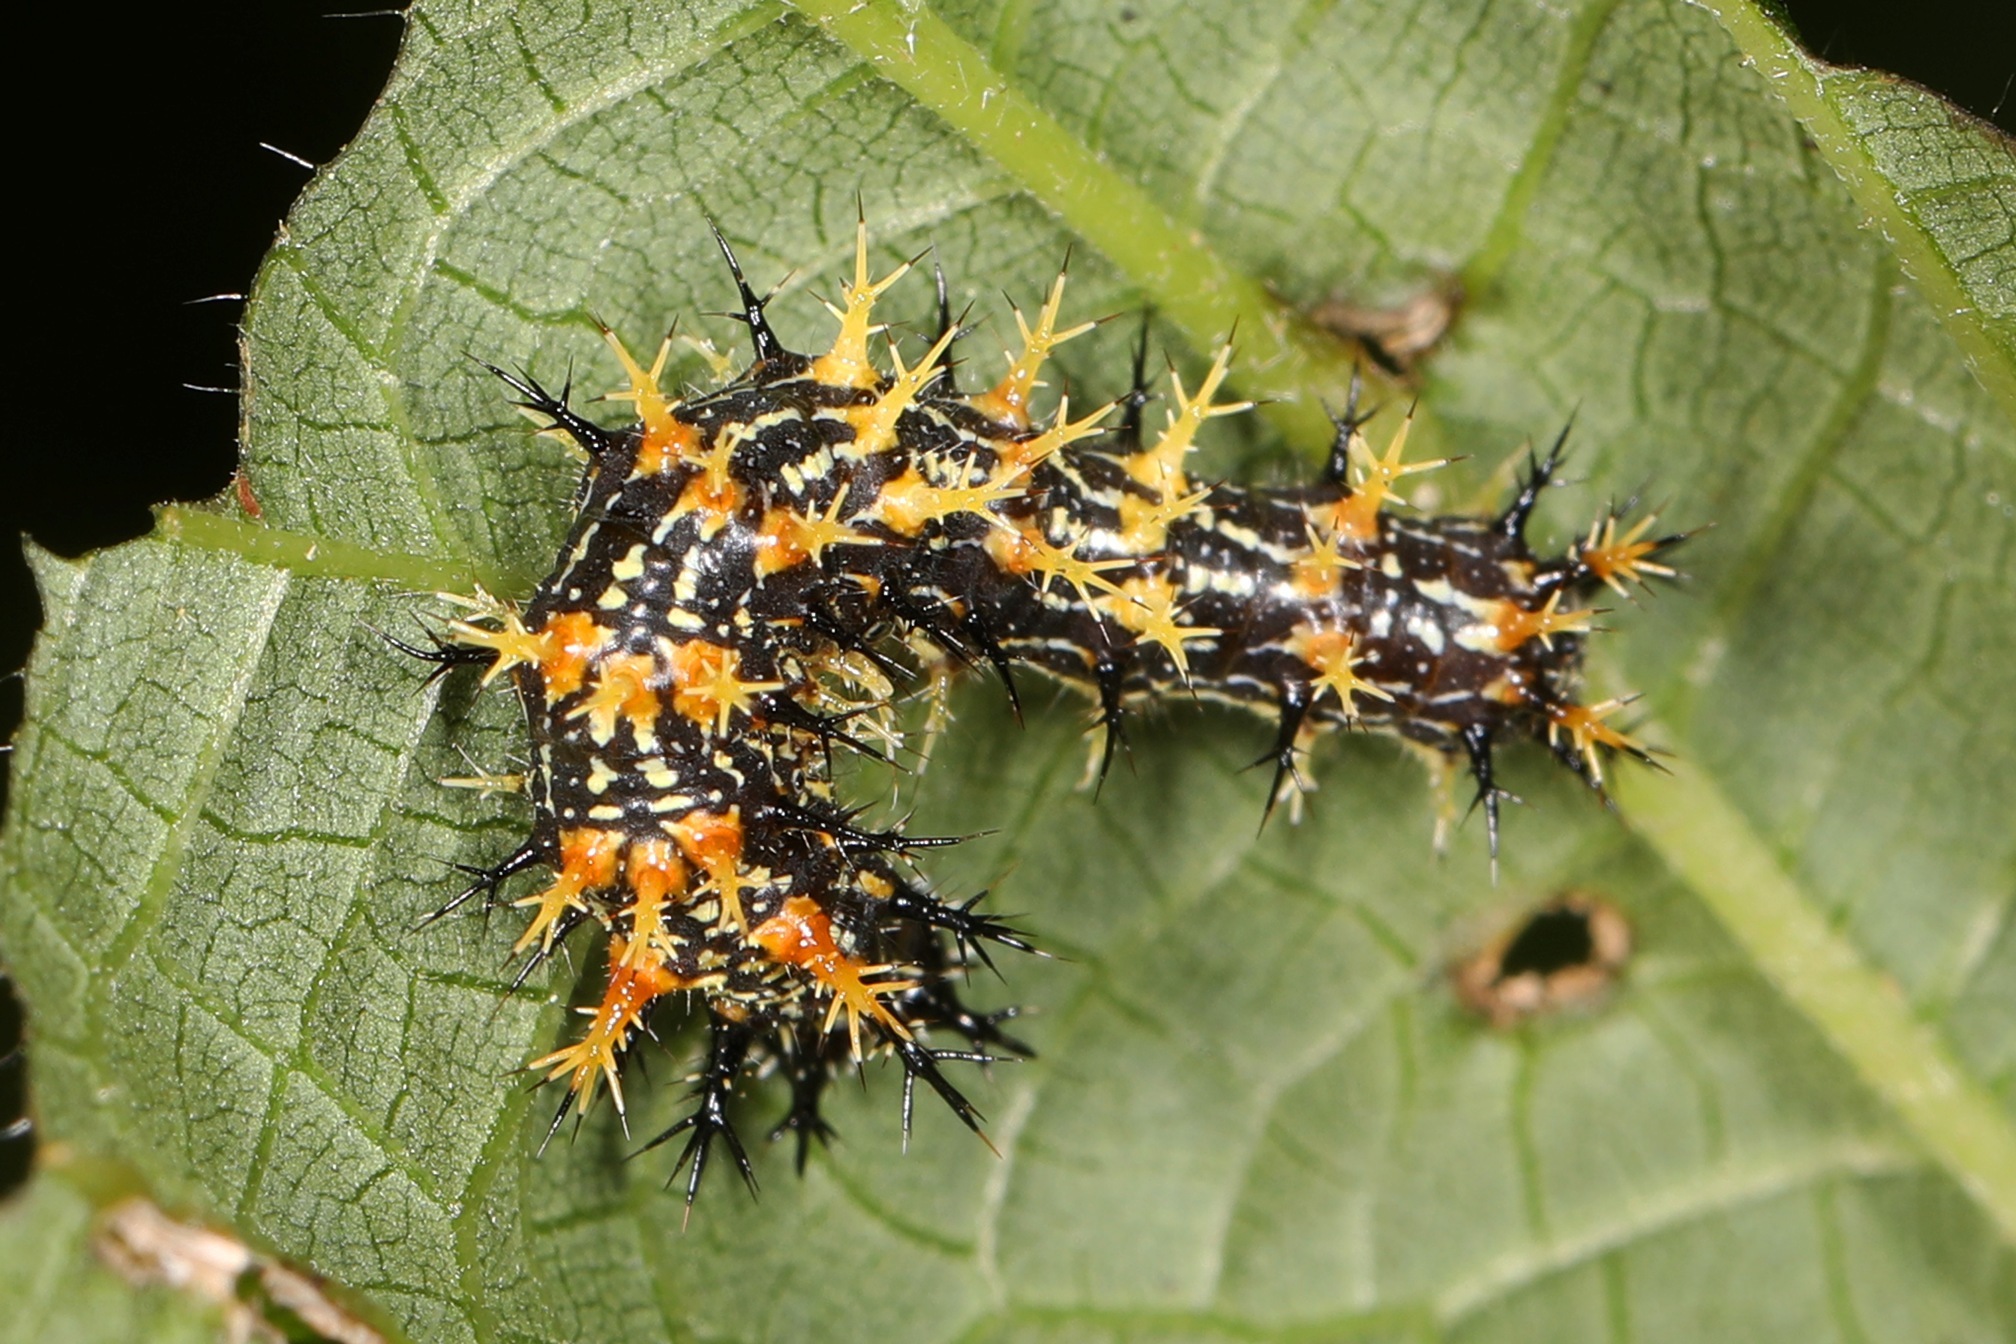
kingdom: Animalia
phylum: Arthropoda
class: Insecta
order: Lepidoptera
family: Nymphalidae
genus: Polygonia
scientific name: Polygonia interrogationis
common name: Question mark
